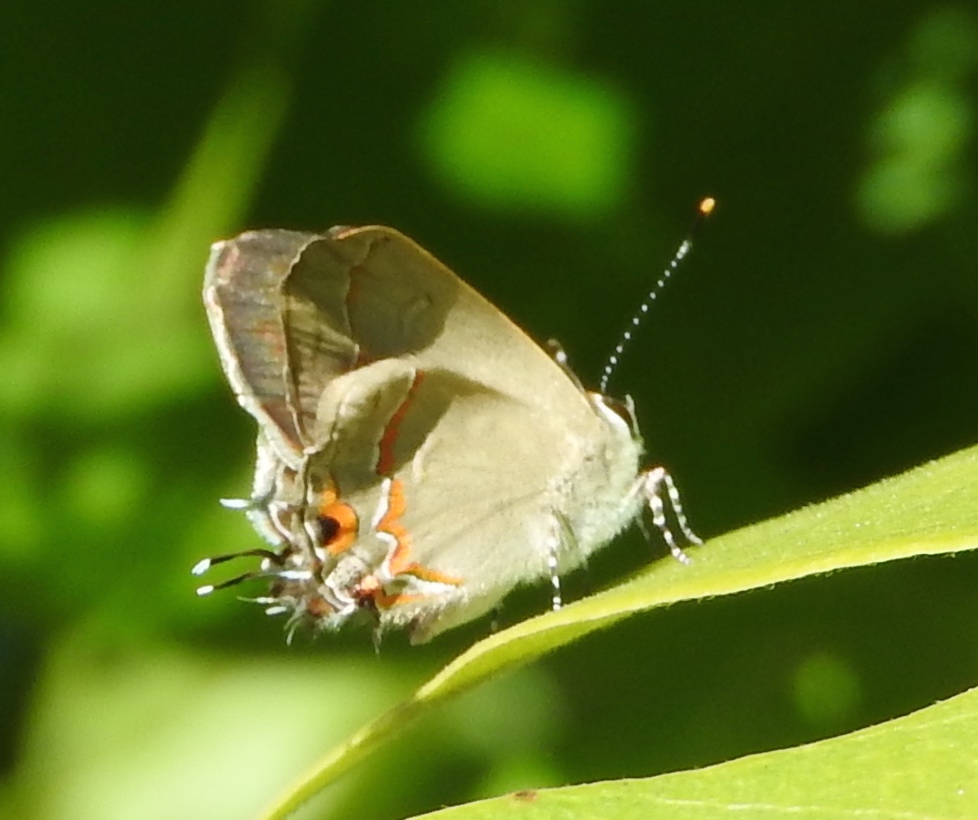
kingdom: Animalia
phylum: Arthropoda
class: Insecta
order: Lepidoptera
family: Lycaenidae
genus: Electrostrymon
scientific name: Electrostrymon endymion
